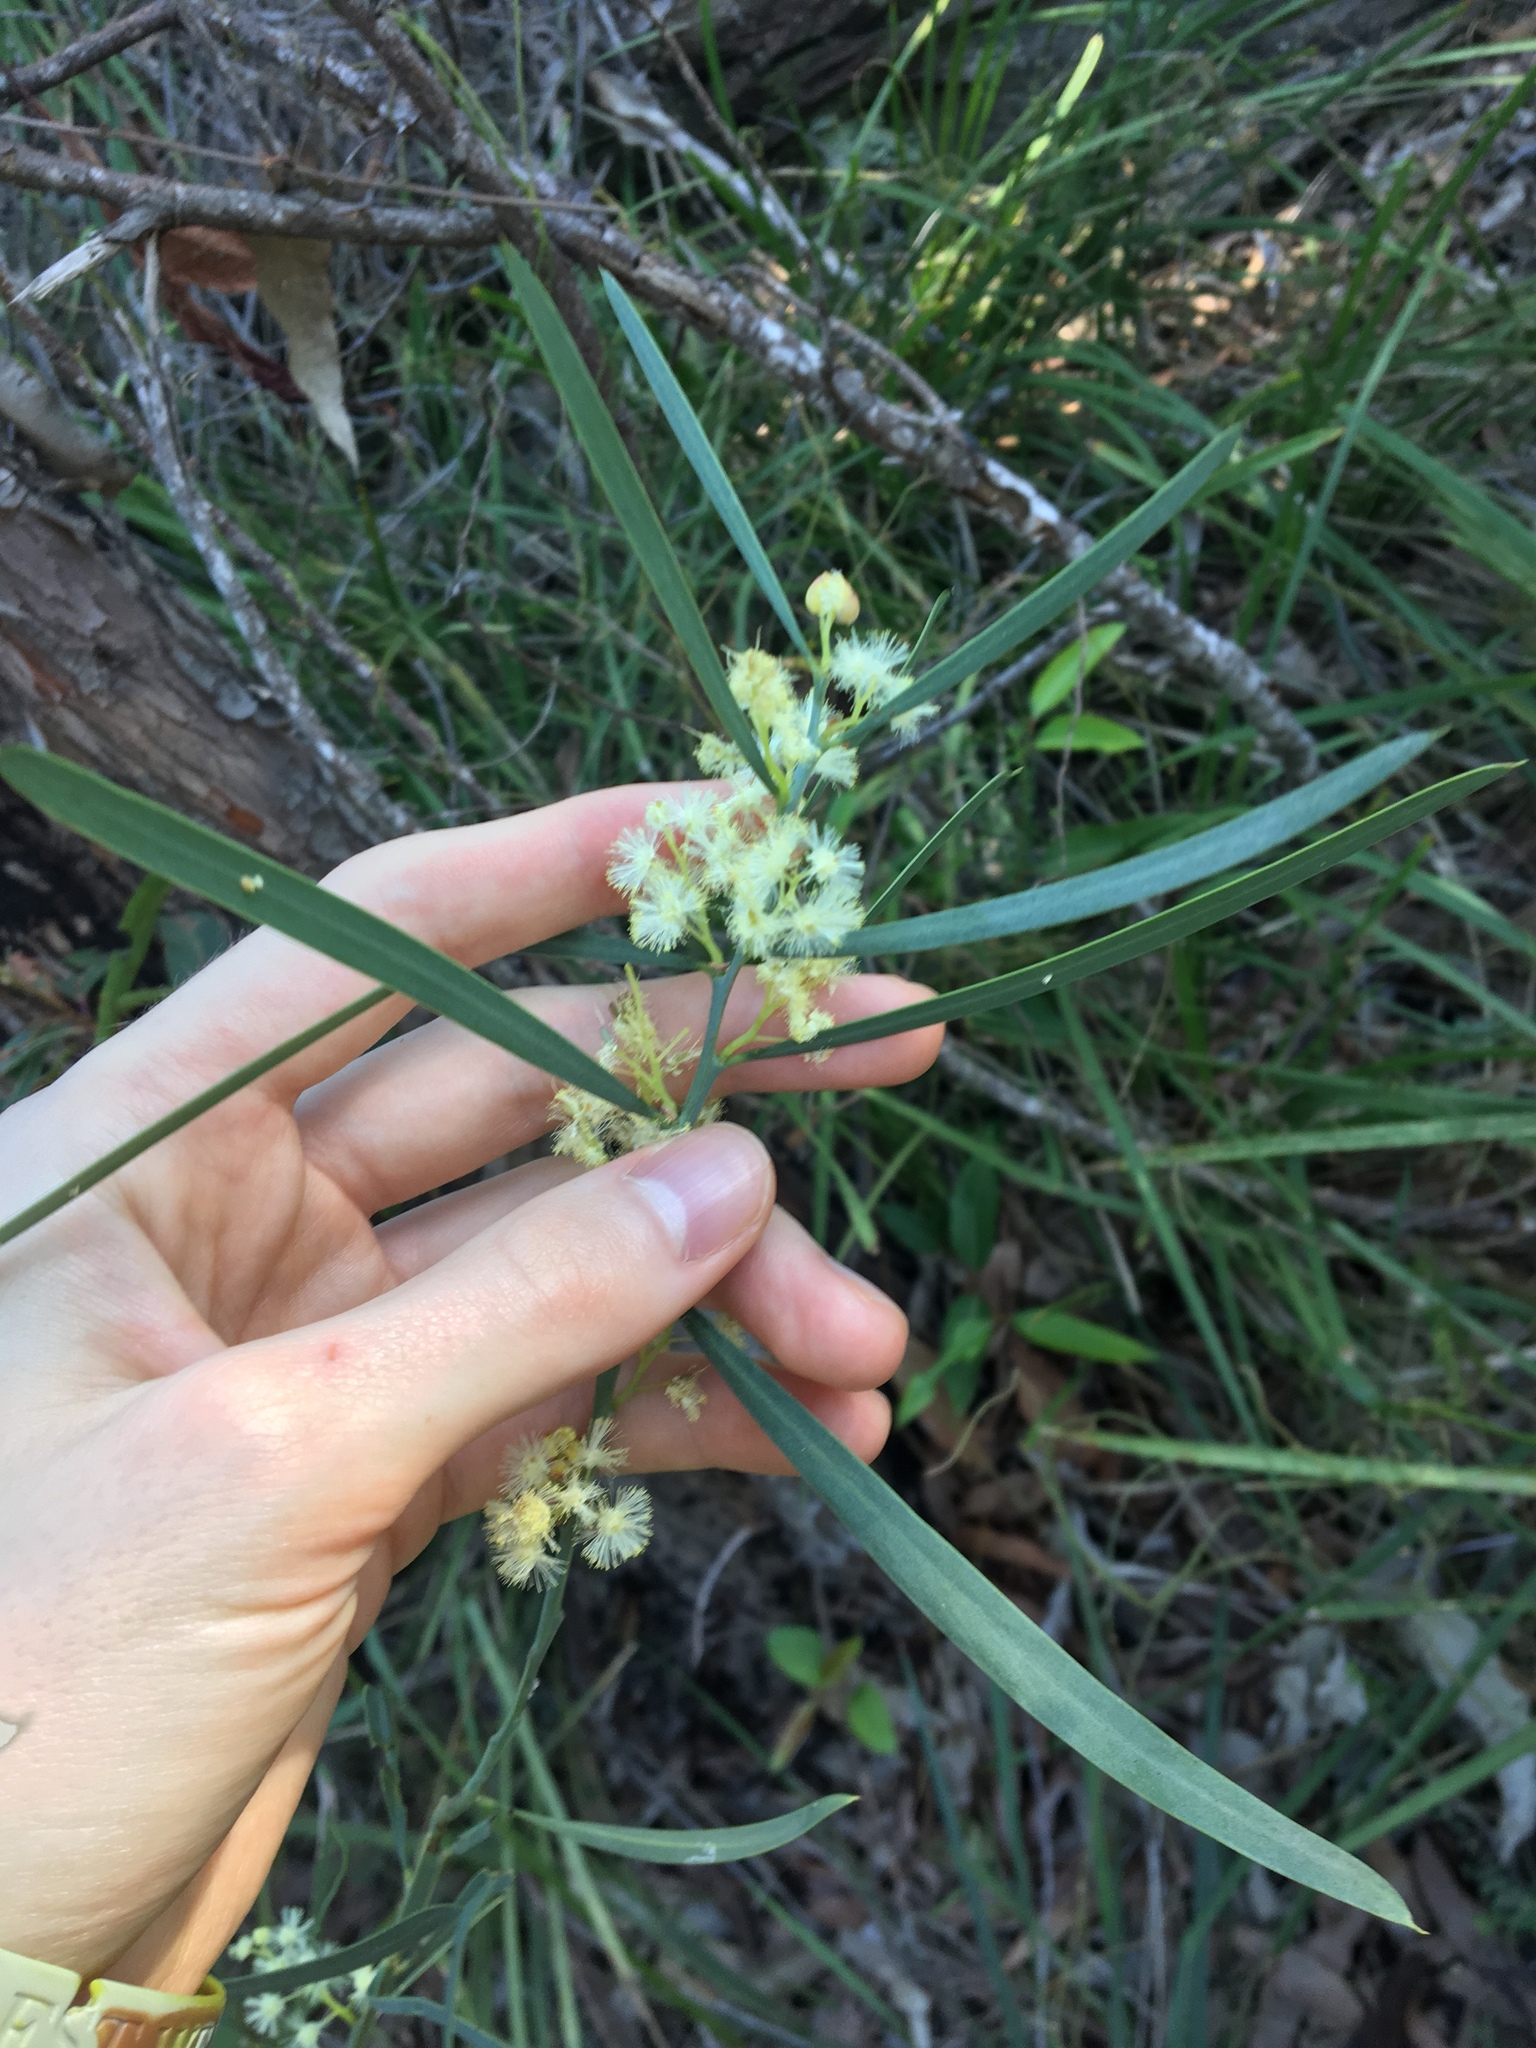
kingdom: Plantae
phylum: Tracheophyta
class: Magnoliopsida
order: Fabales
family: Fabaceae
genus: Acacia
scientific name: Acacia suaveolens
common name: Sweet acacia
